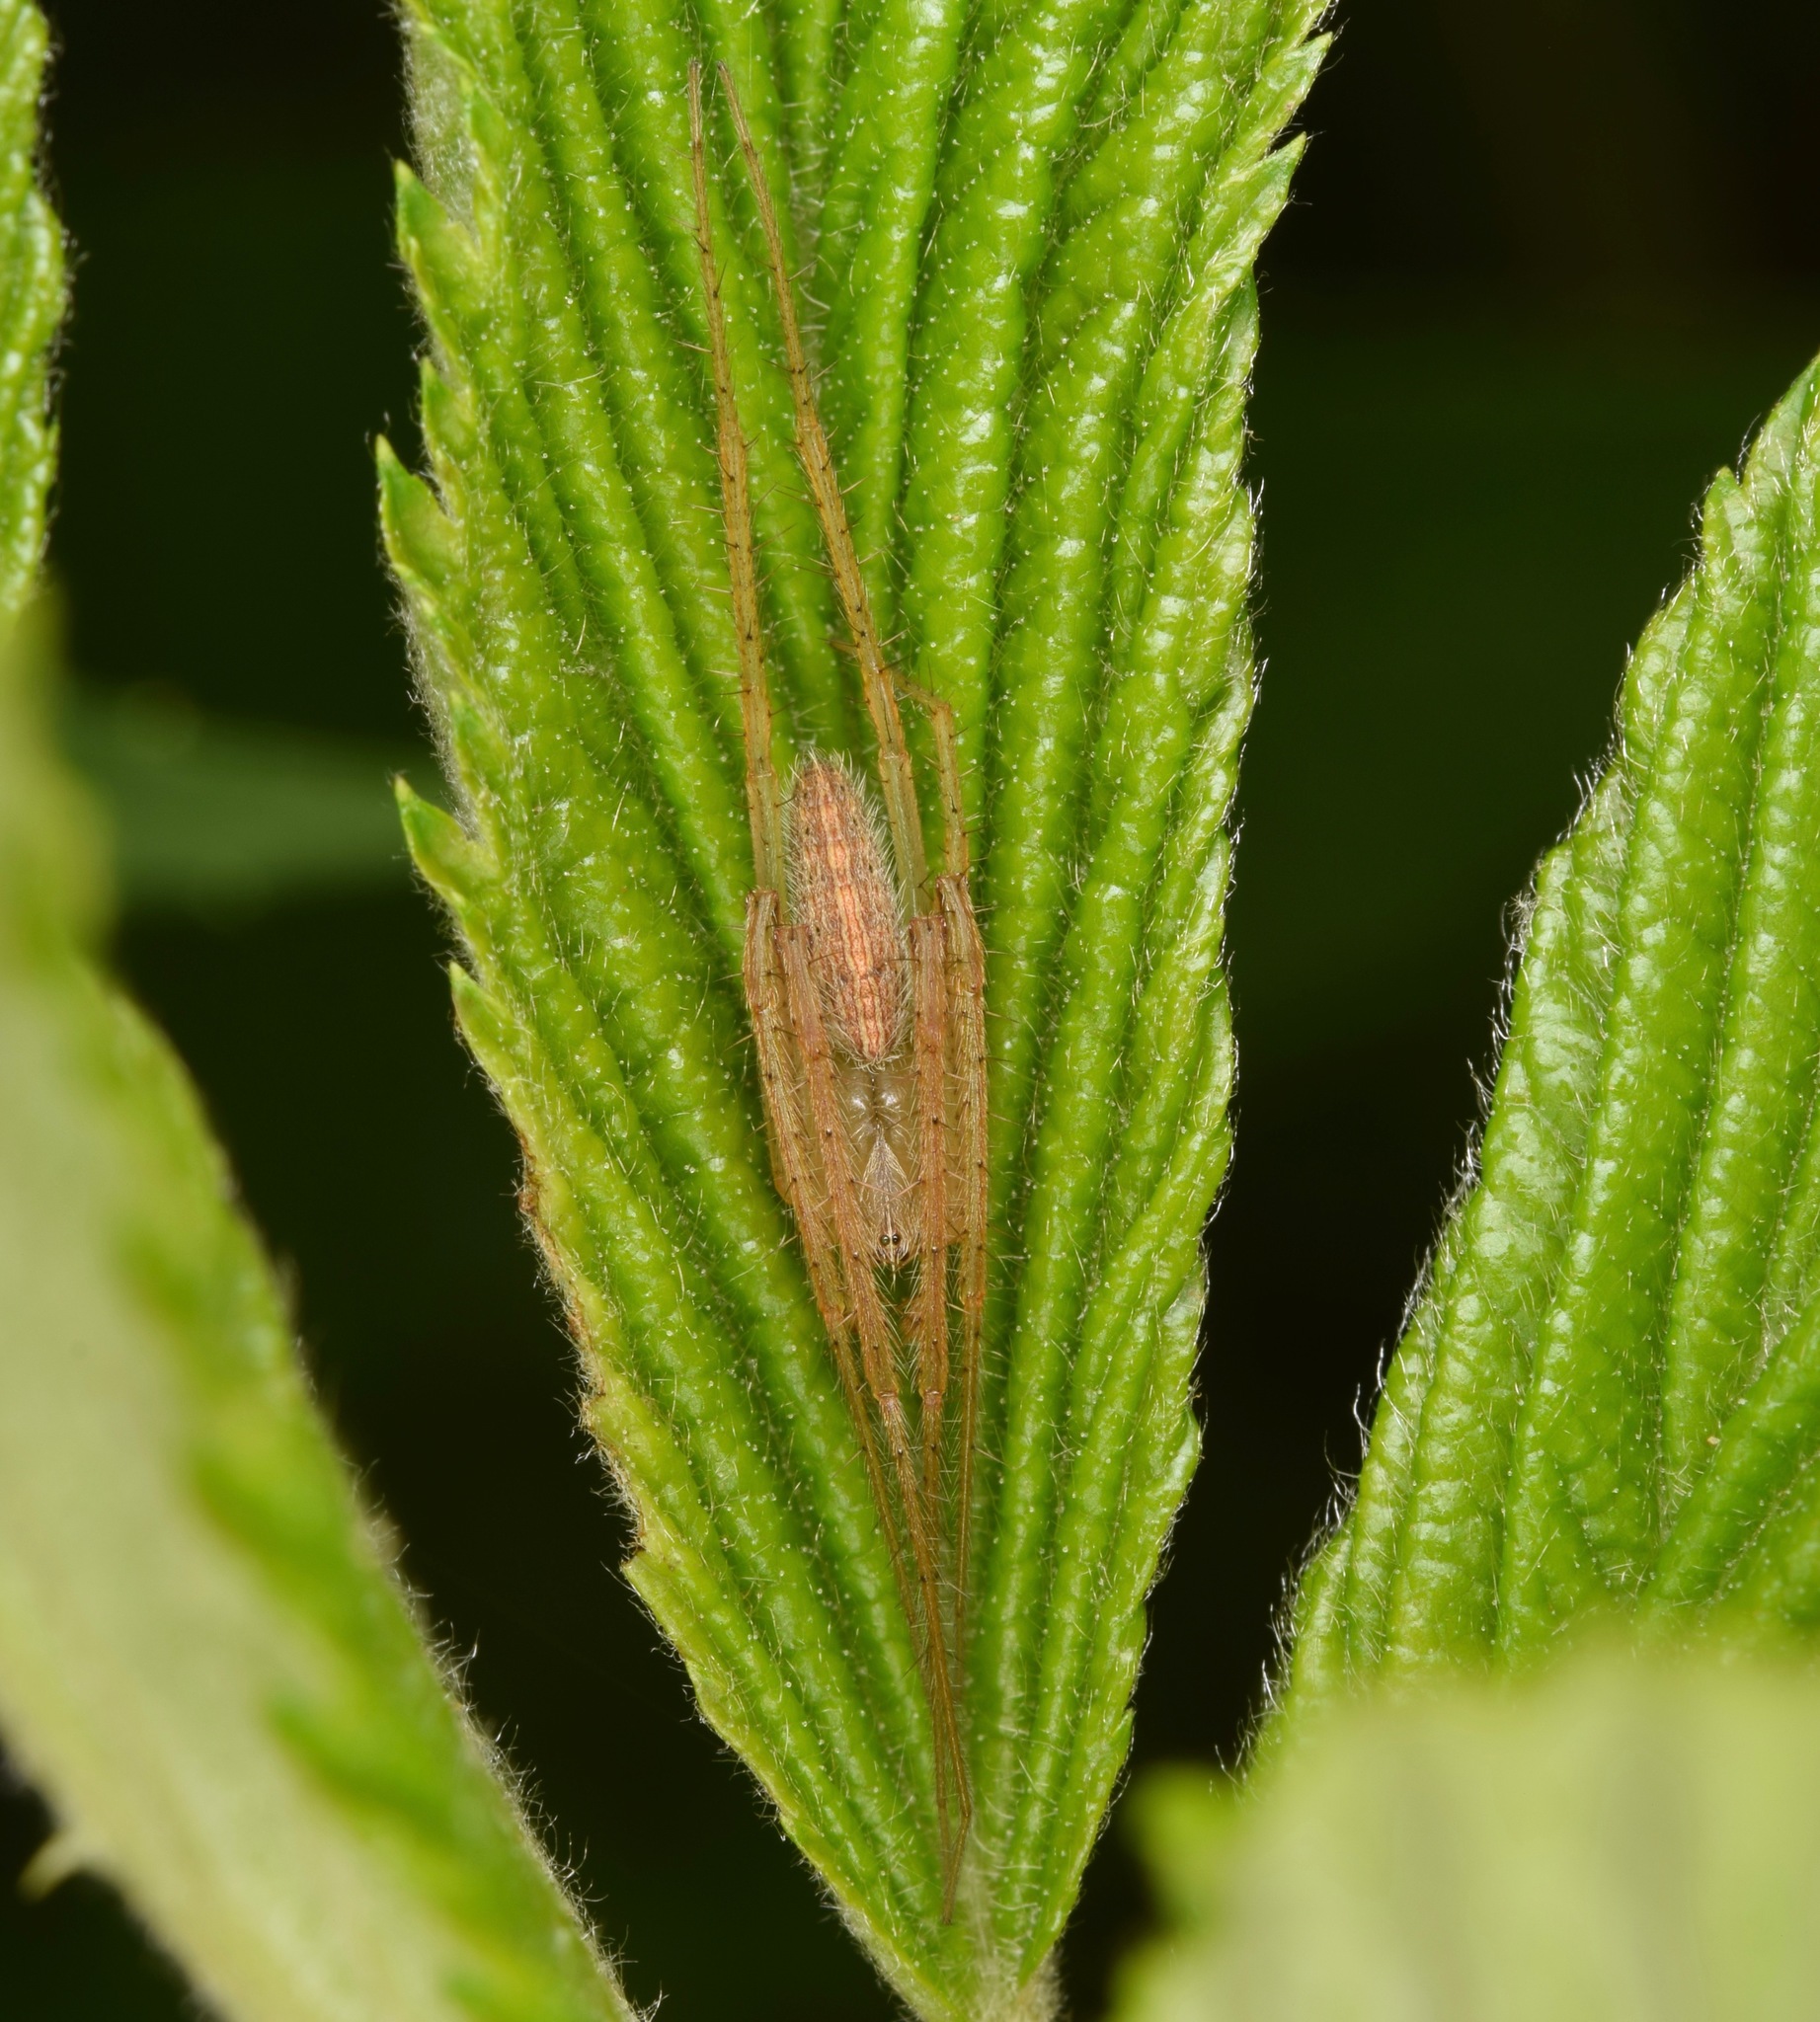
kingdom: Animalia
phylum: Arthropoda
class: Arachnida
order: Araneae
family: Araneidae
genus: Larinia
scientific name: Larinia directa
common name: Orb weavers
